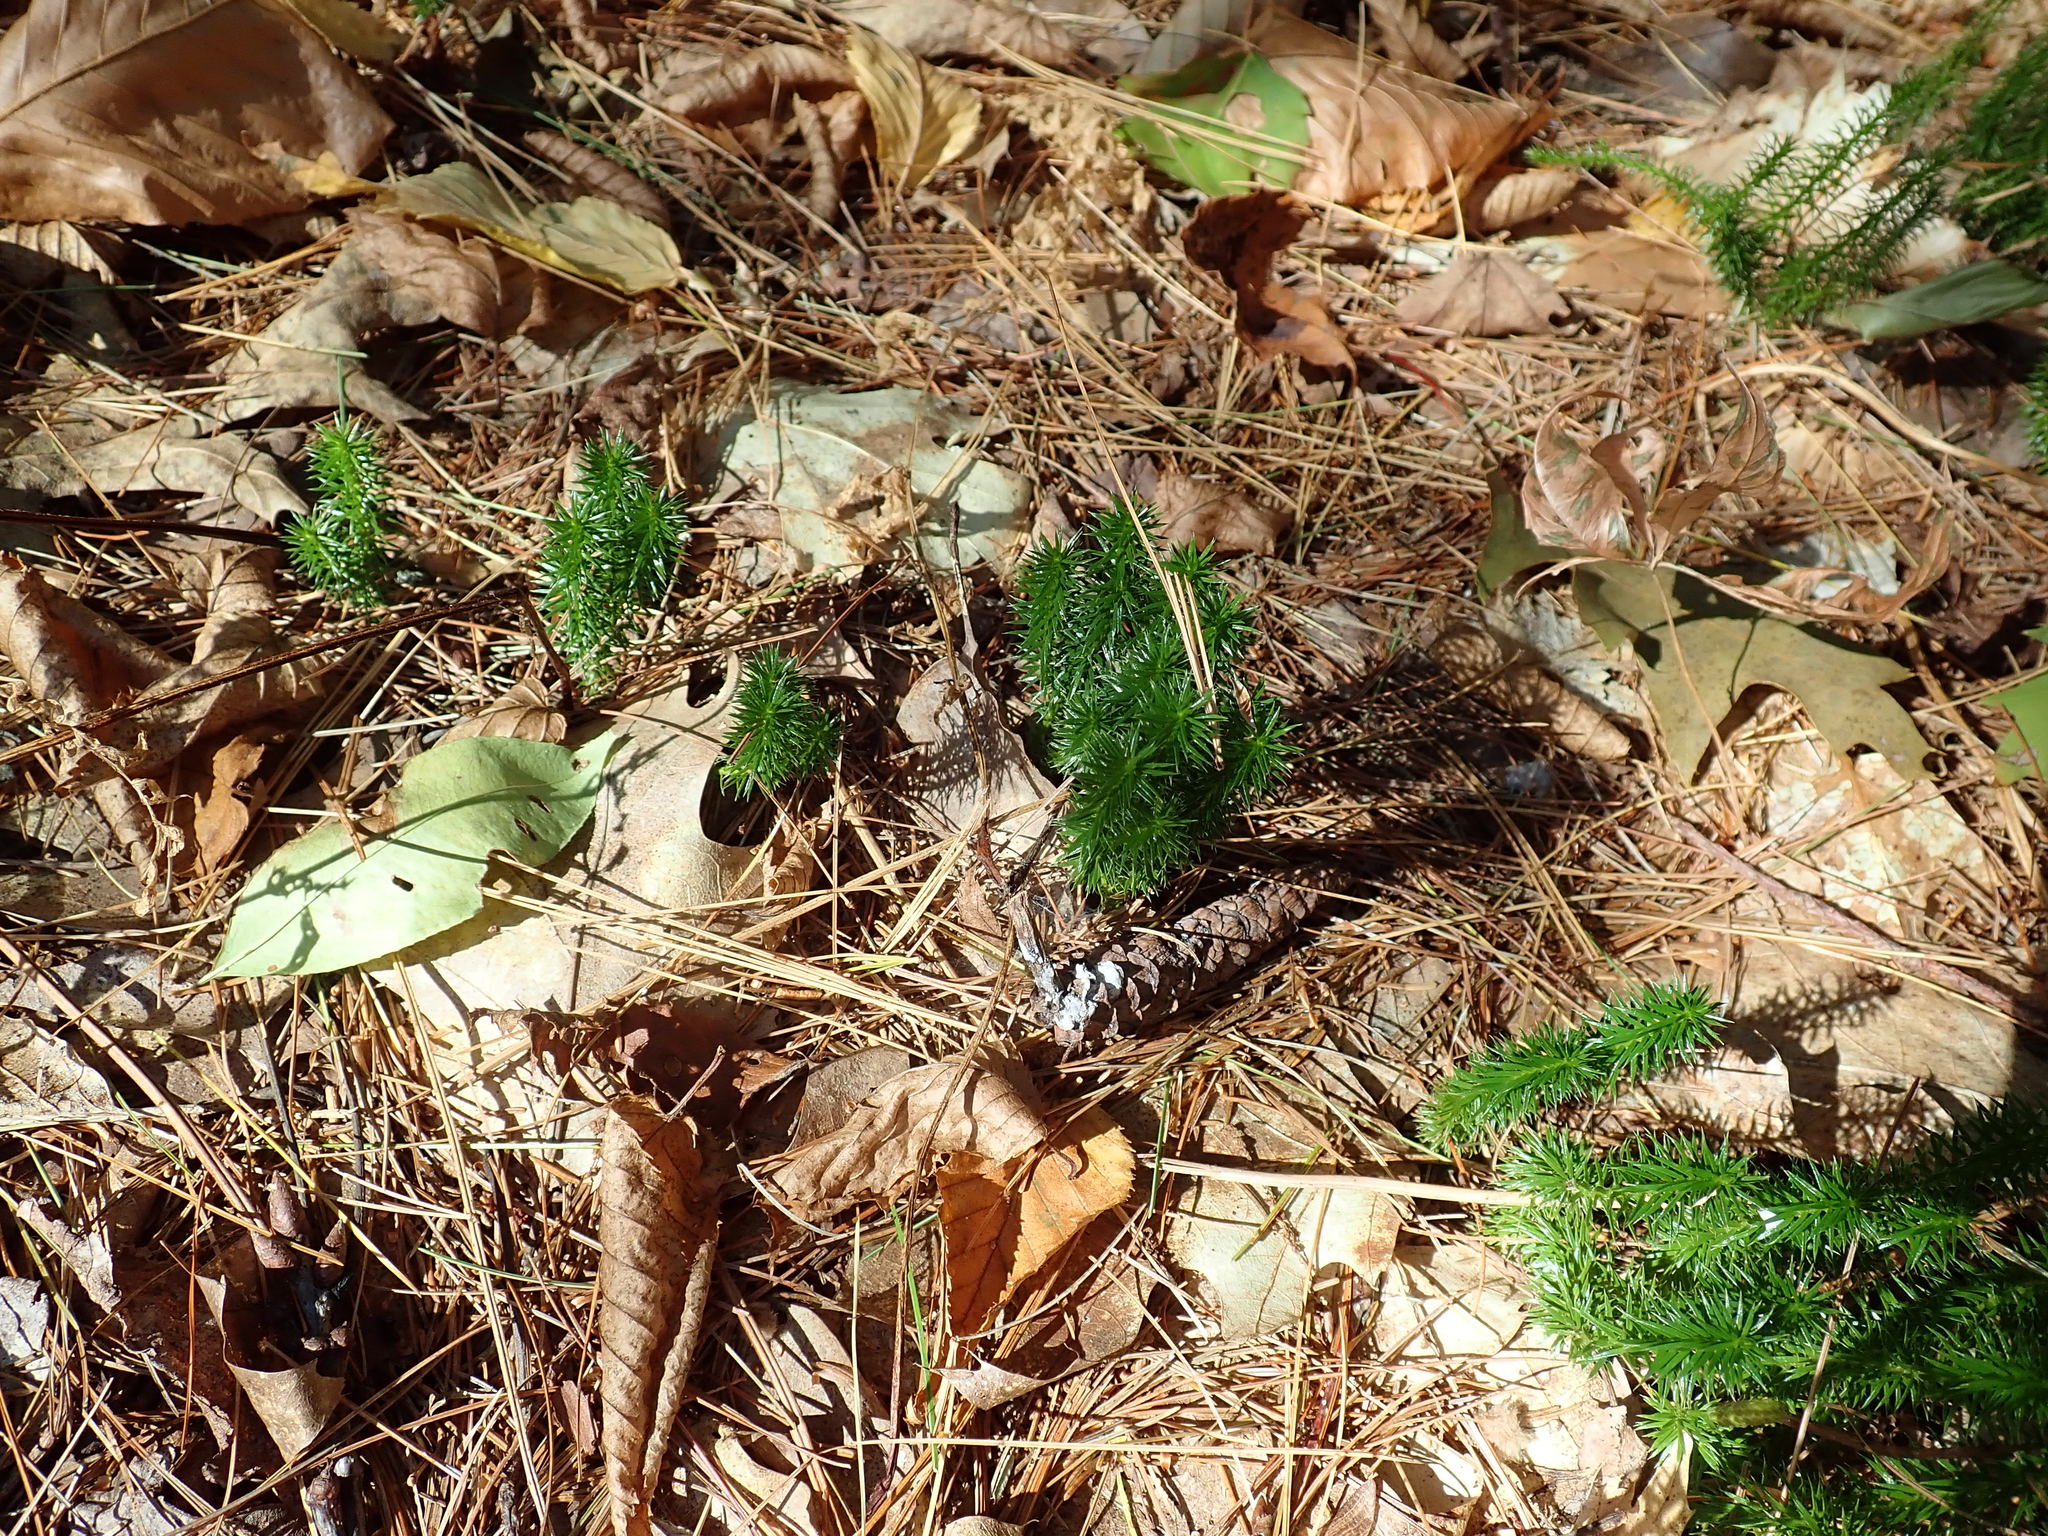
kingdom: Plantae
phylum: Tracheophyta
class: Lycopodiopsida
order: Lycopodiales
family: Lycopodiaceae
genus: Spinulum
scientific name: Spinulum annotinum
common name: Interrupted club-moss
